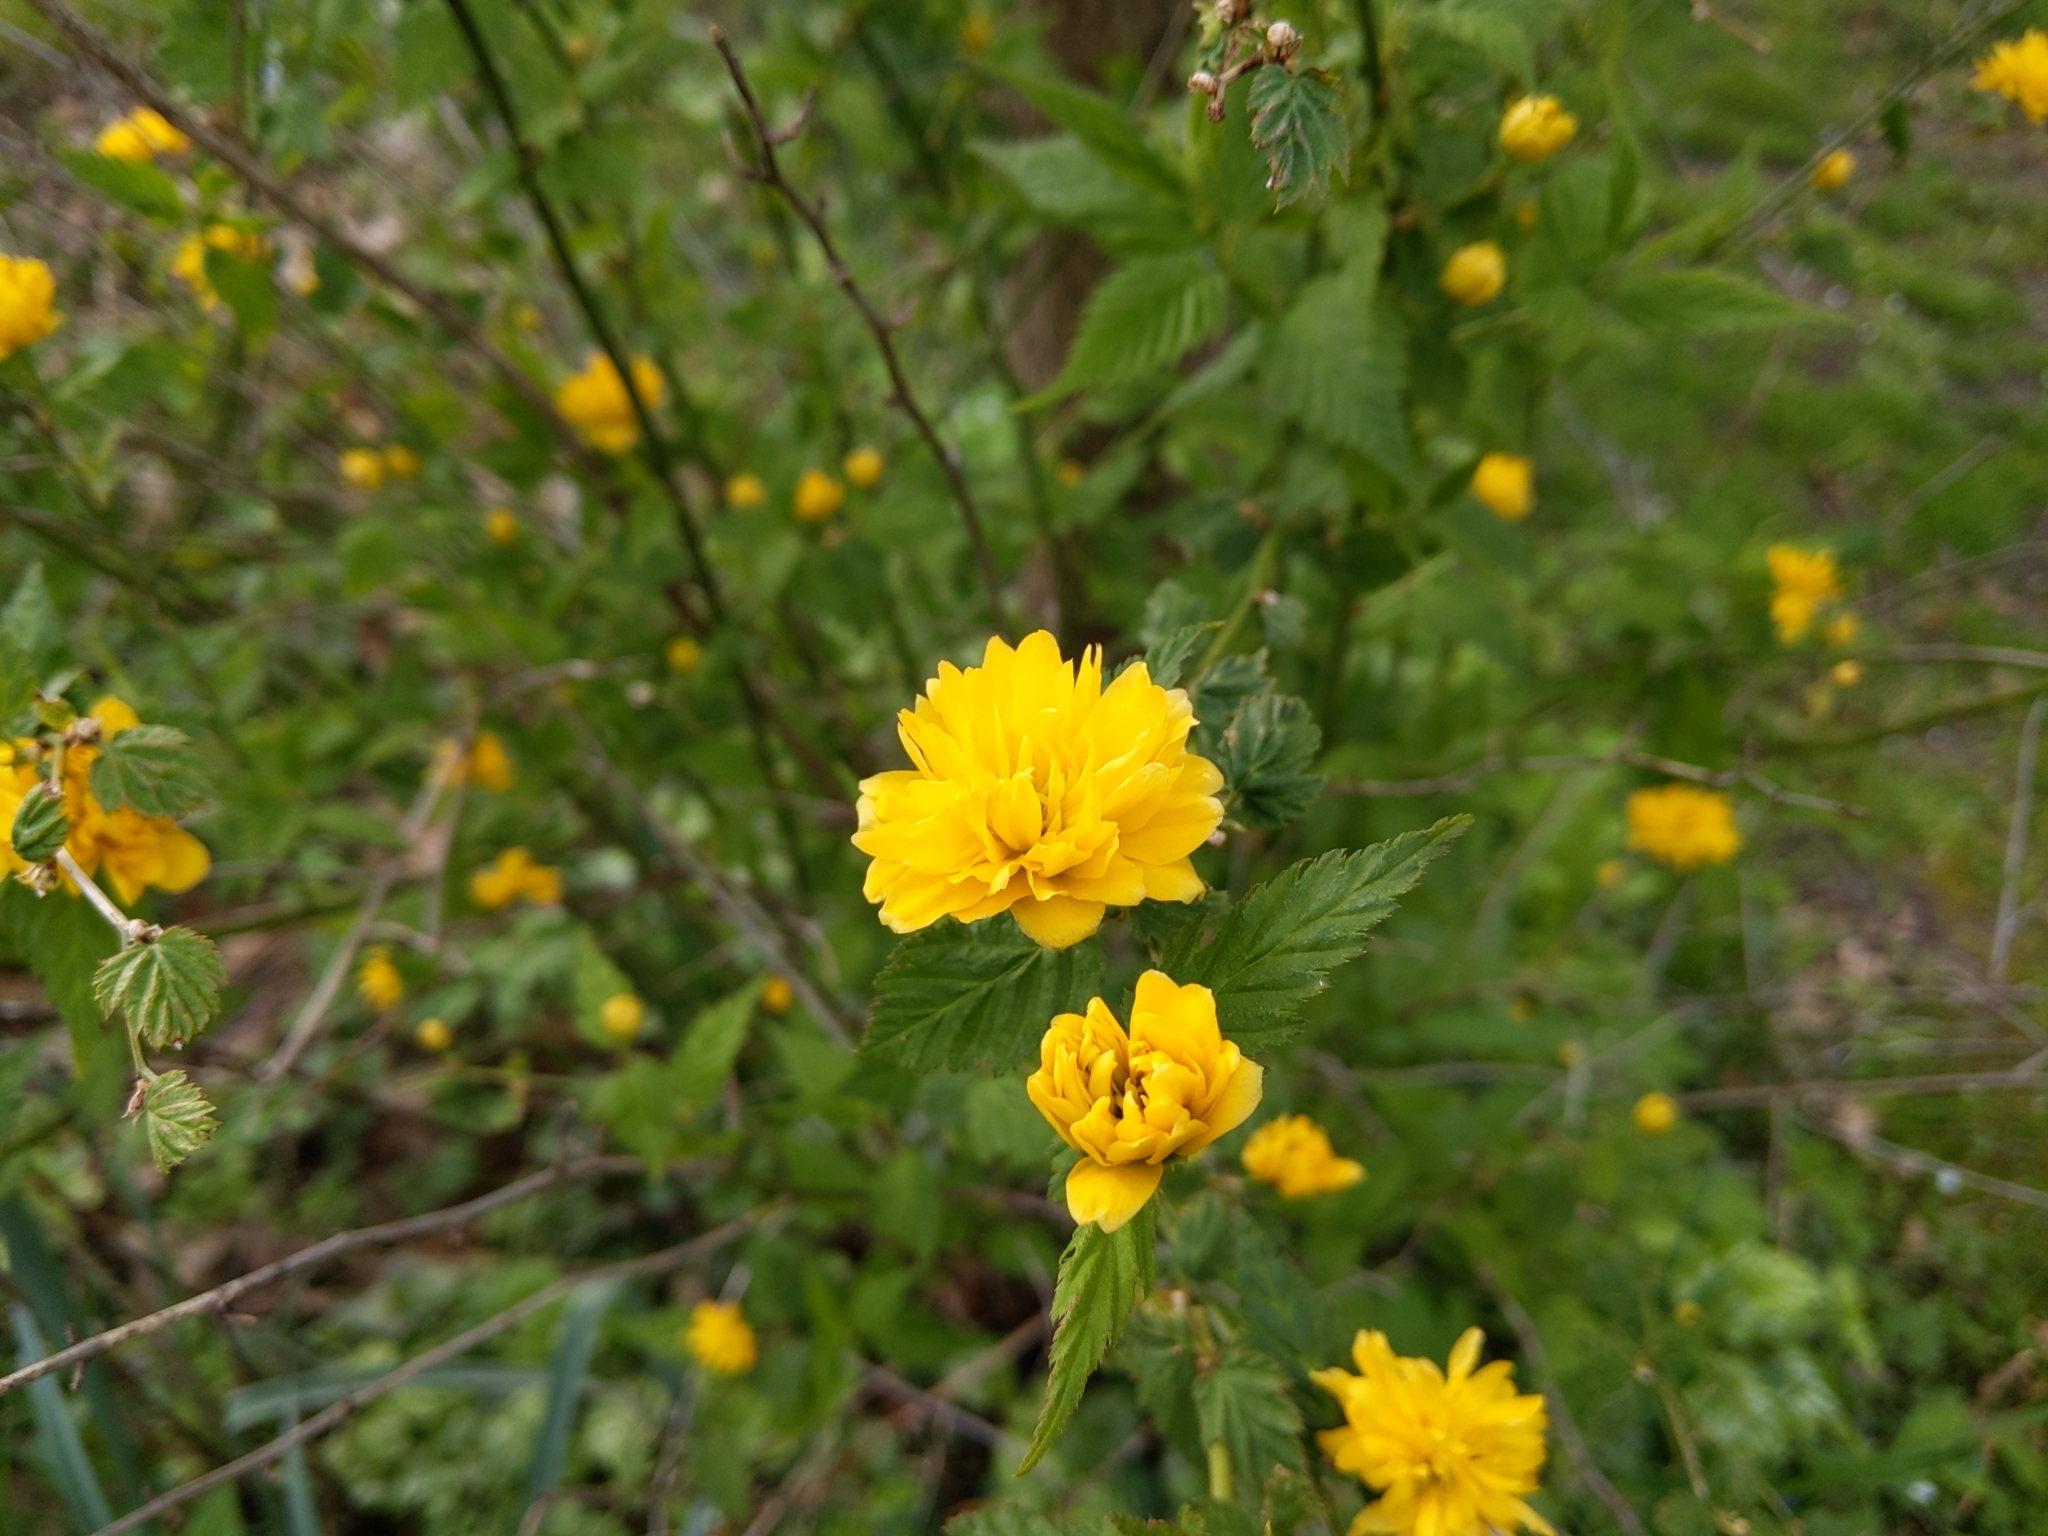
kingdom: Plantae
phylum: Tracheophyta
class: Magnoliopsida
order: Rosales
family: Rosaceae
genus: Kerria
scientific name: Kerria japonica
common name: Japanese kerria
